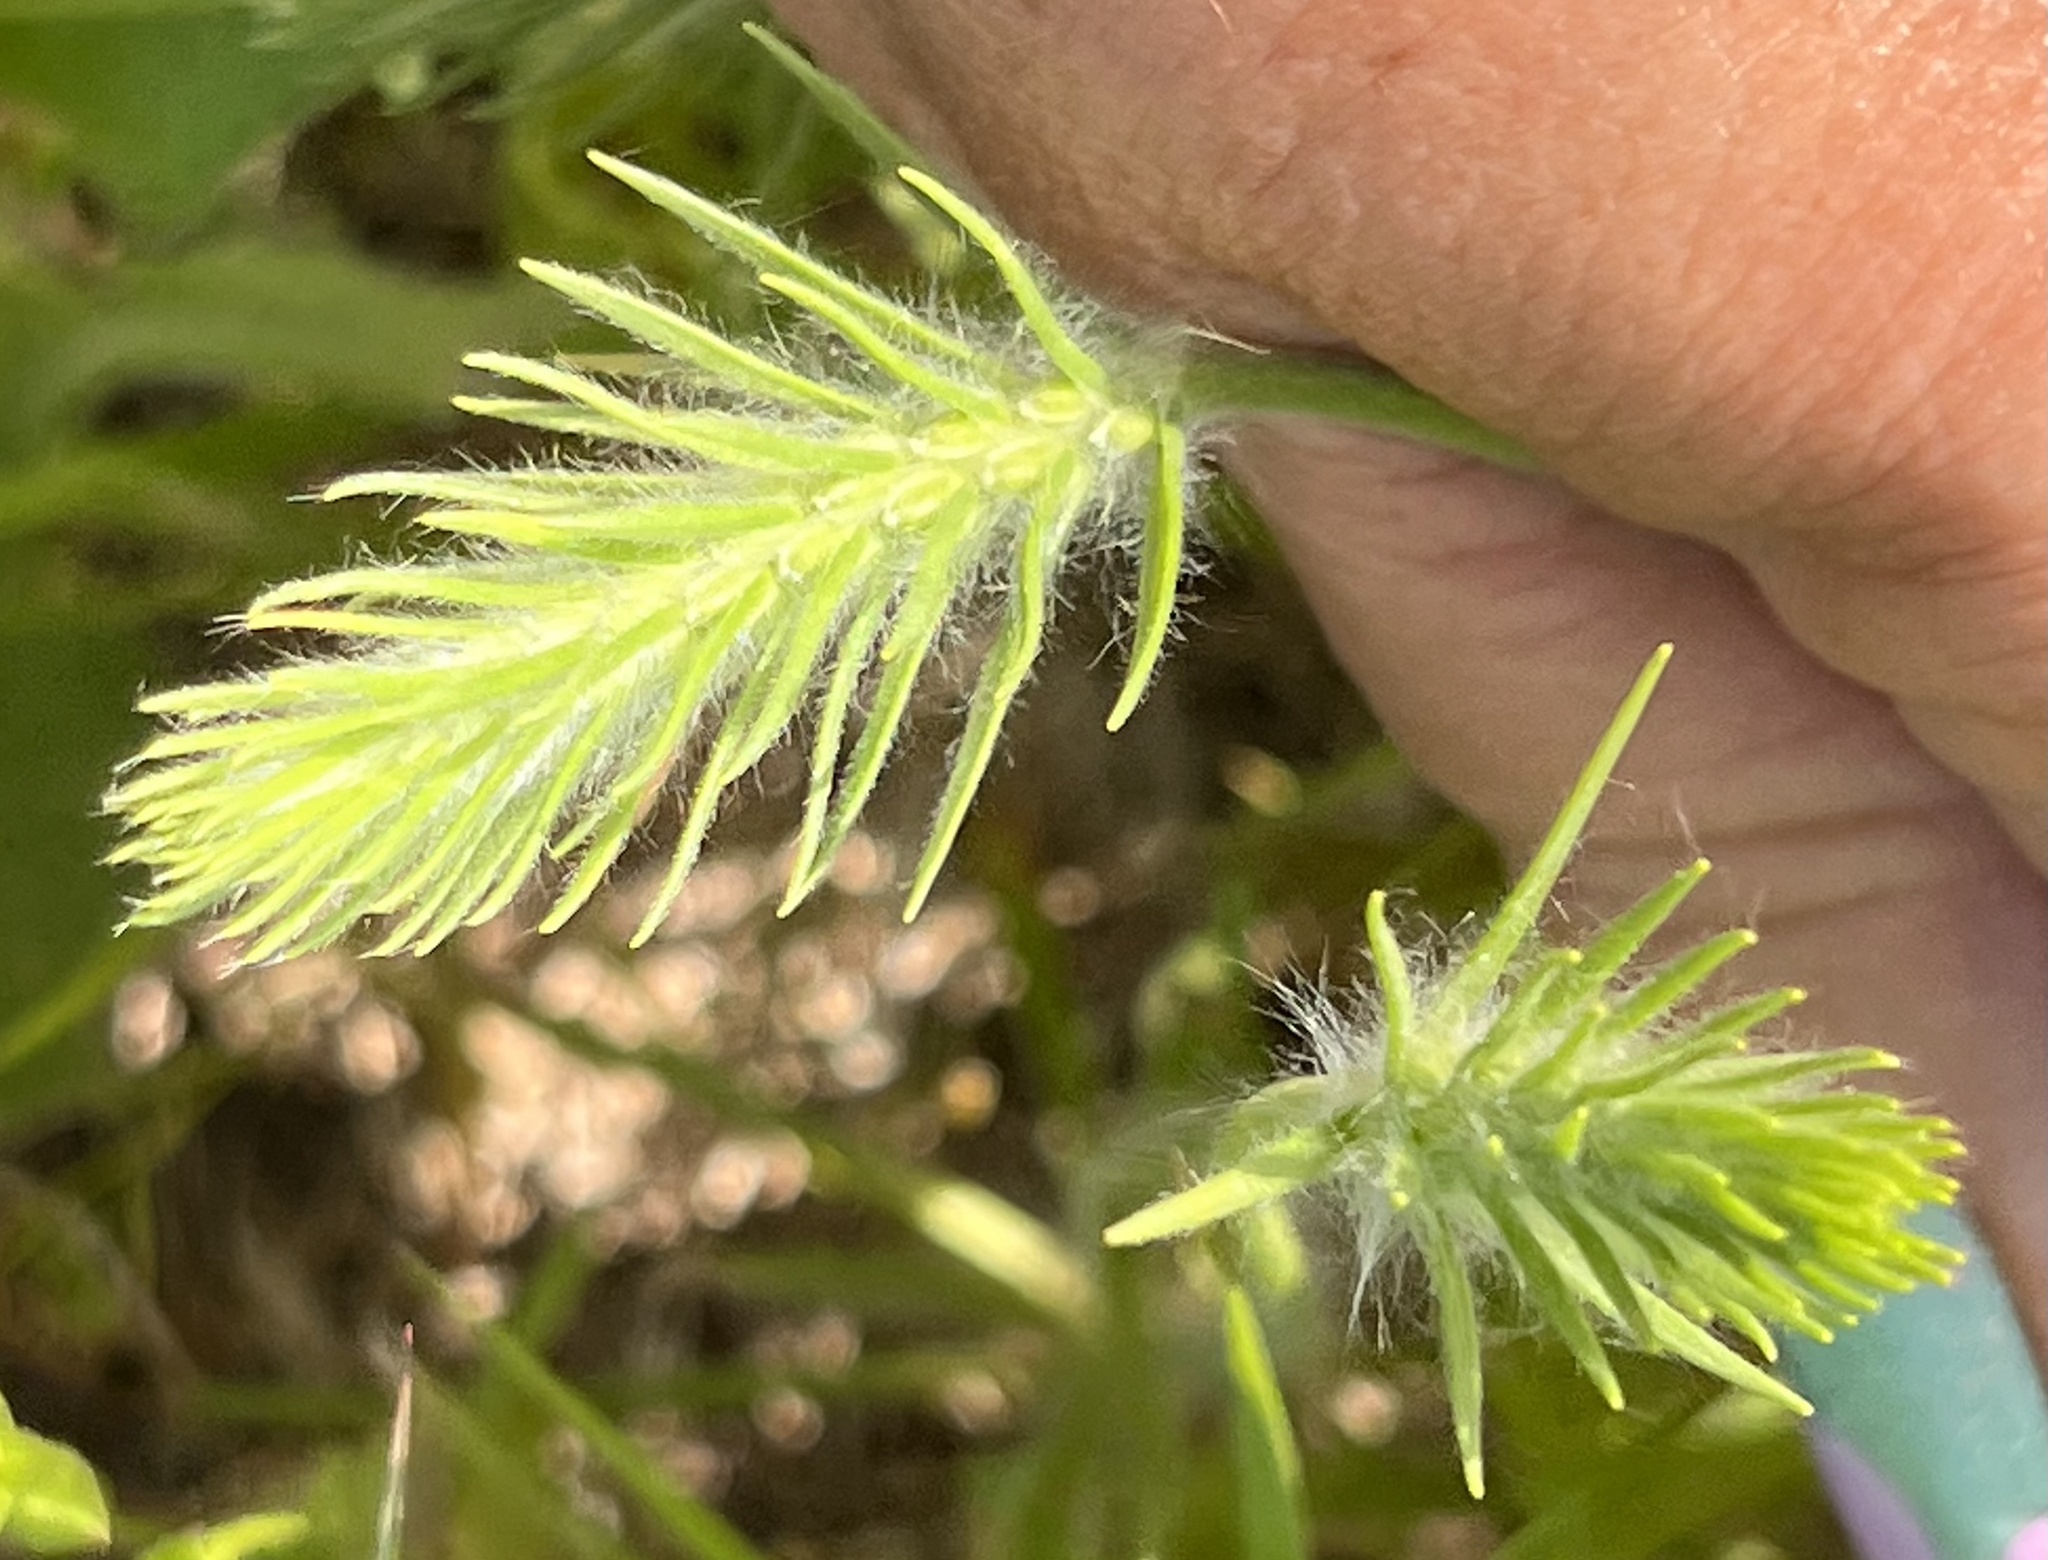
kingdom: Plantae
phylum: Tracheophyta
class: Magnoliopsida
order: Lamiales
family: Plantaginaceae
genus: Plantago
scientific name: Plantago aristata
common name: Bracted plantain
